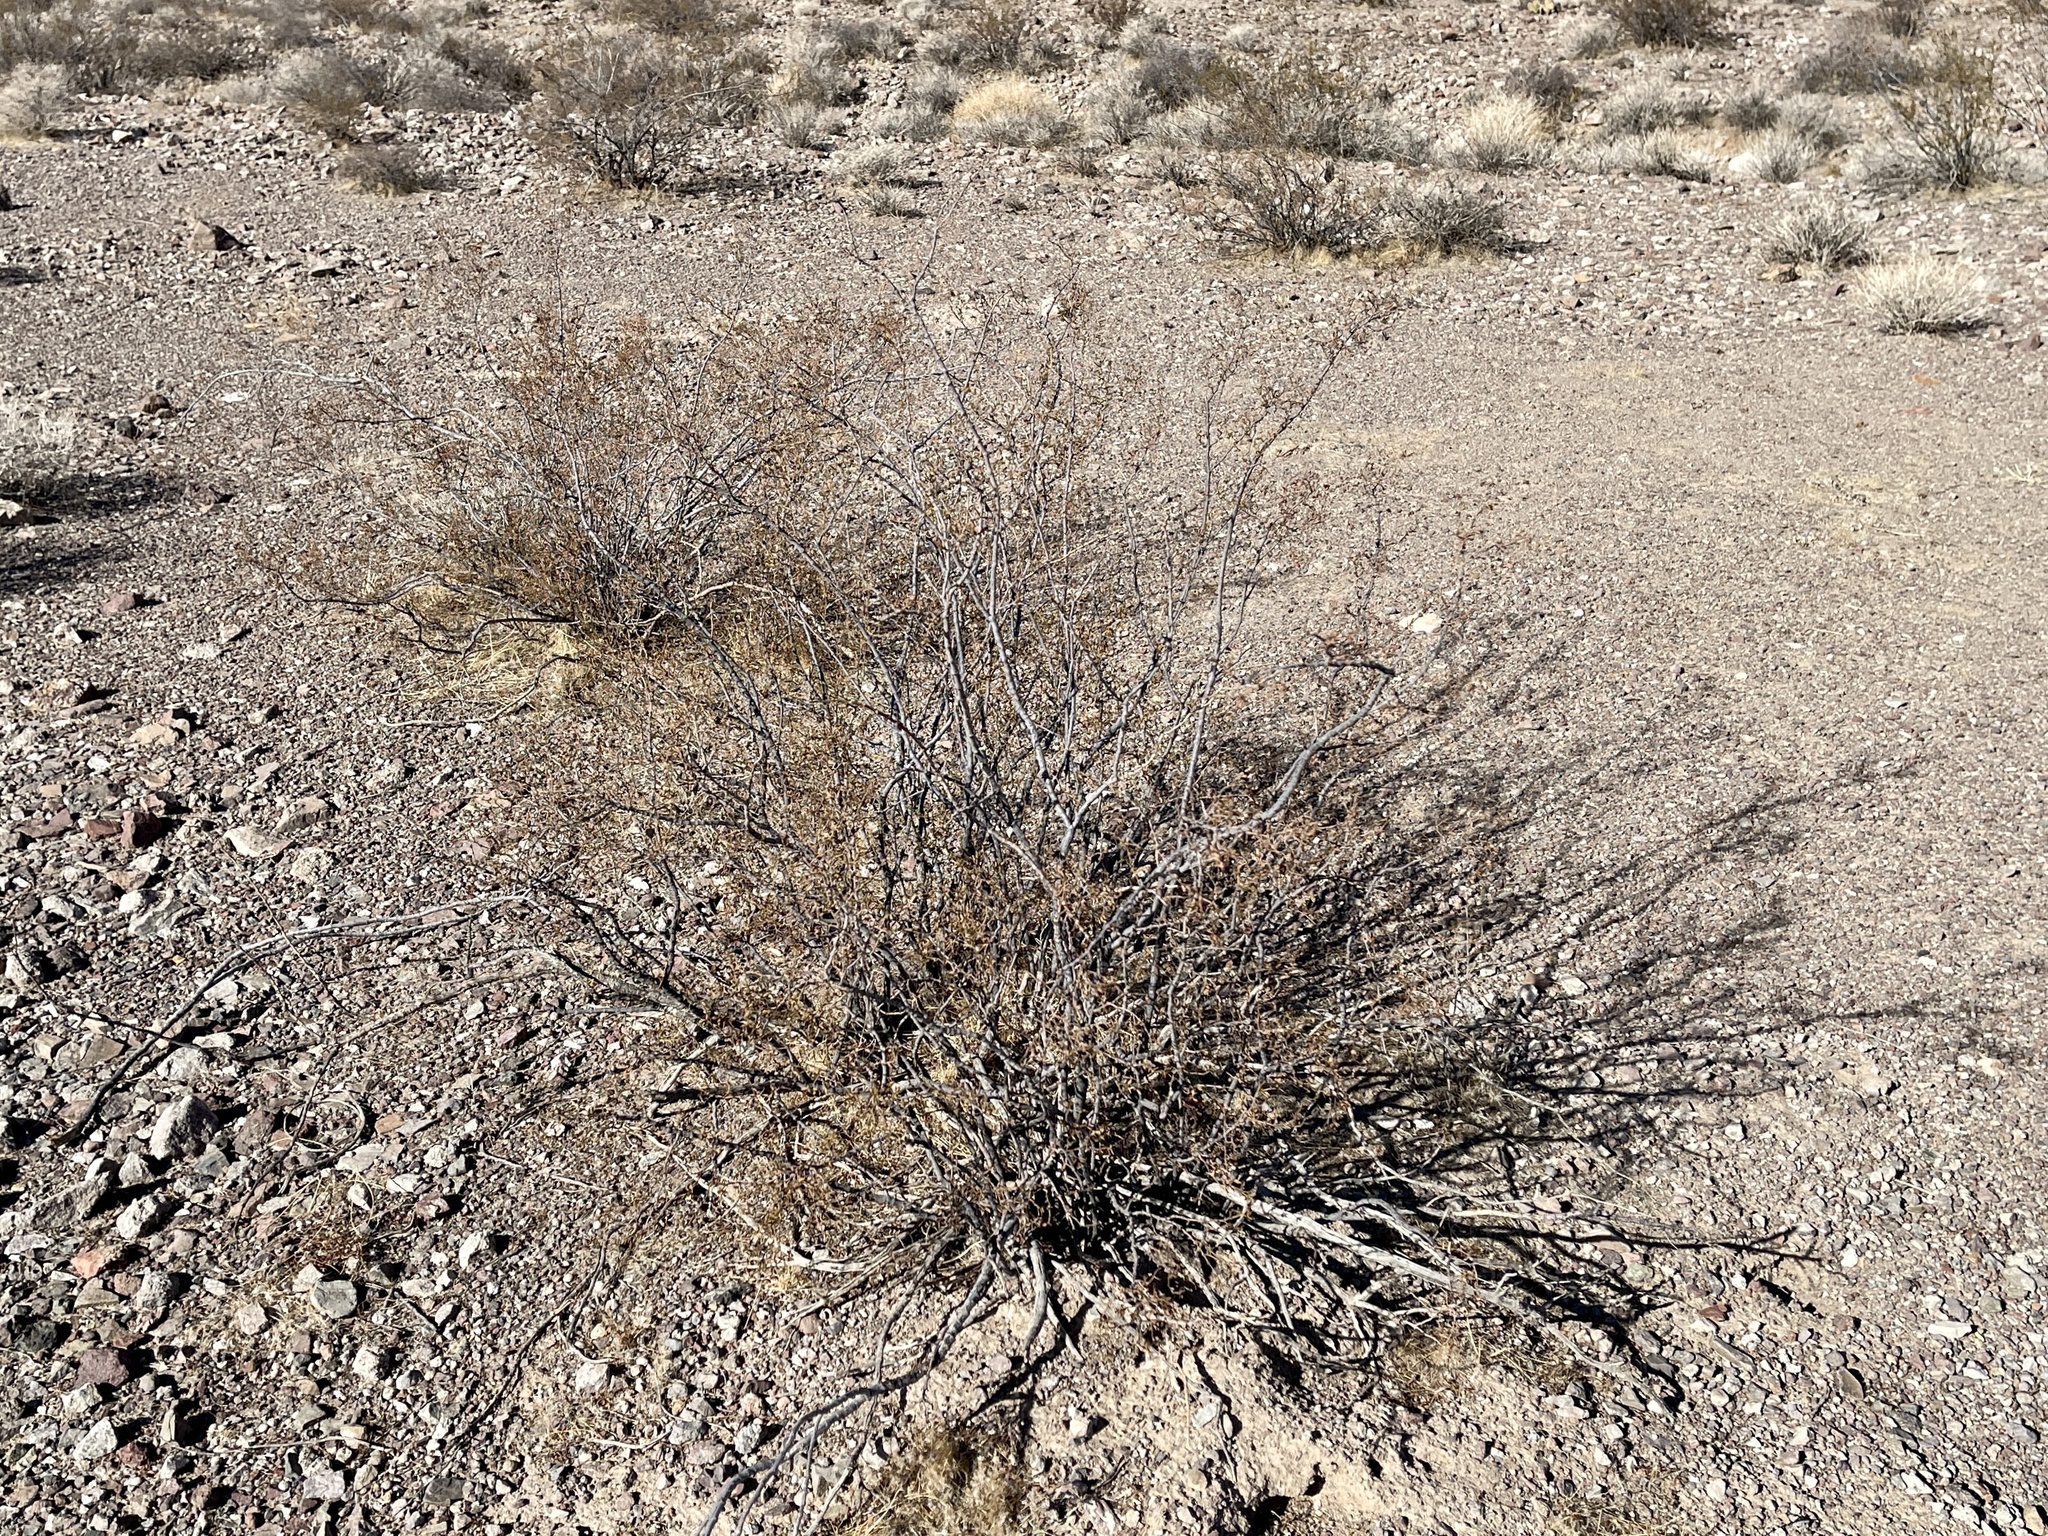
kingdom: Plantae
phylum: Tracheophyta
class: Magnoliopsida
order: Zygophyllales
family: Zygophyllaceae
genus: Larrea
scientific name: Larrea tridentata
